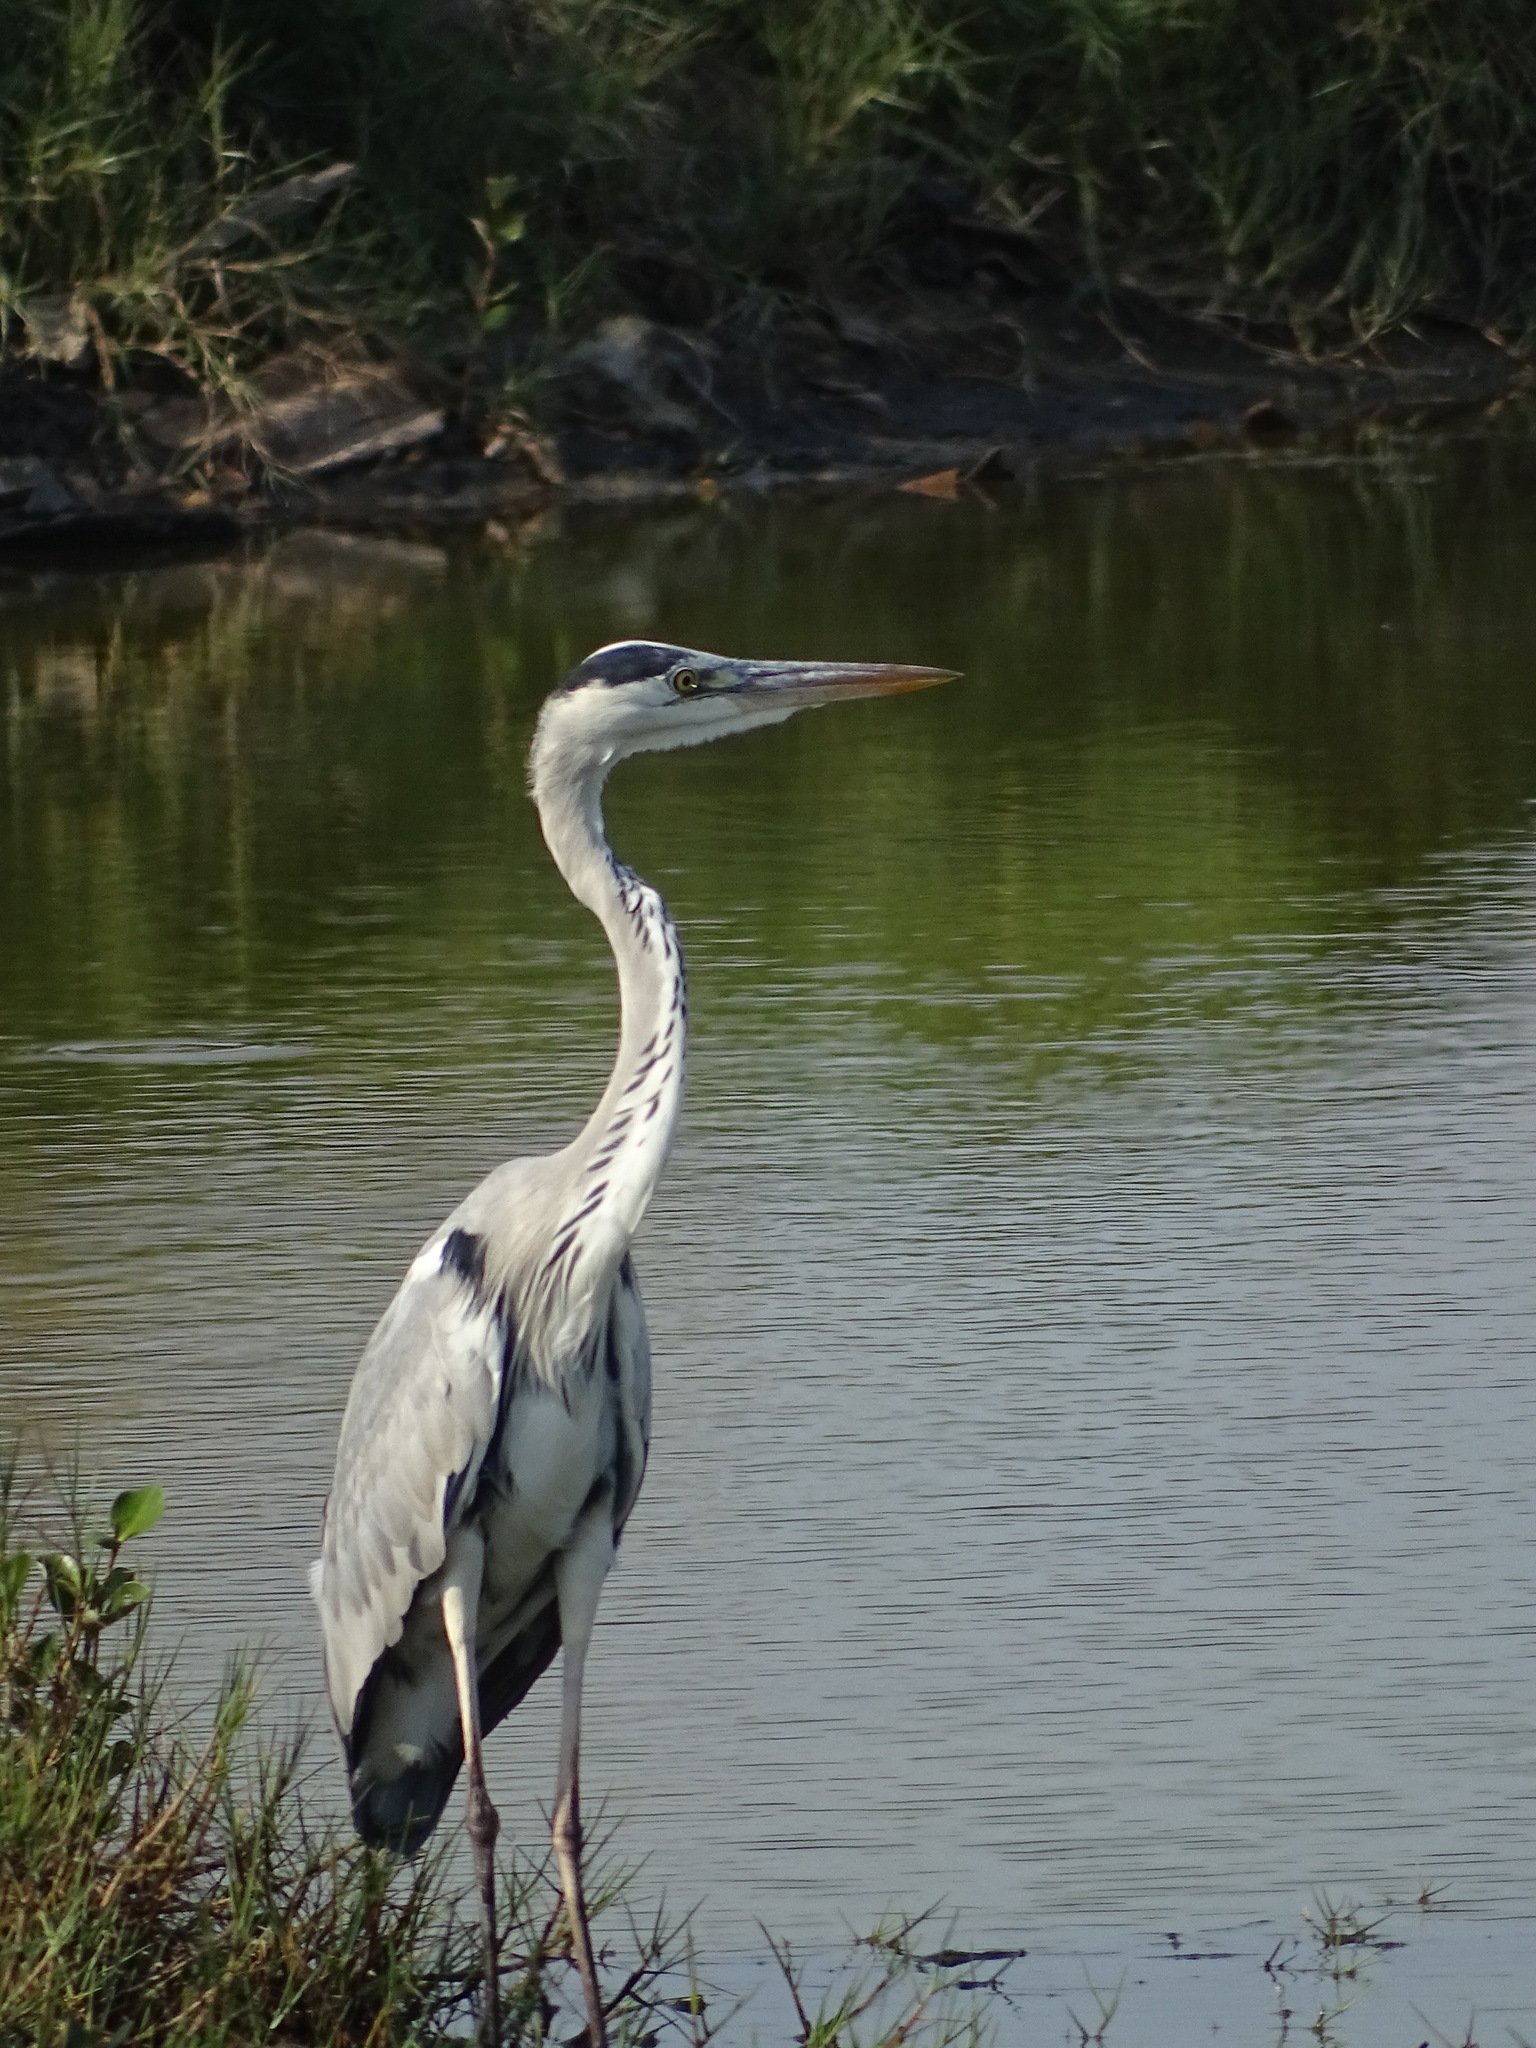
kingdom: Animalia
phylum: Chordata
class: Aves
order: Pelecaniformes
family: Ardeidae
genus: Ardea
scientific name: Ardea cinerea
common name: Grey heron
